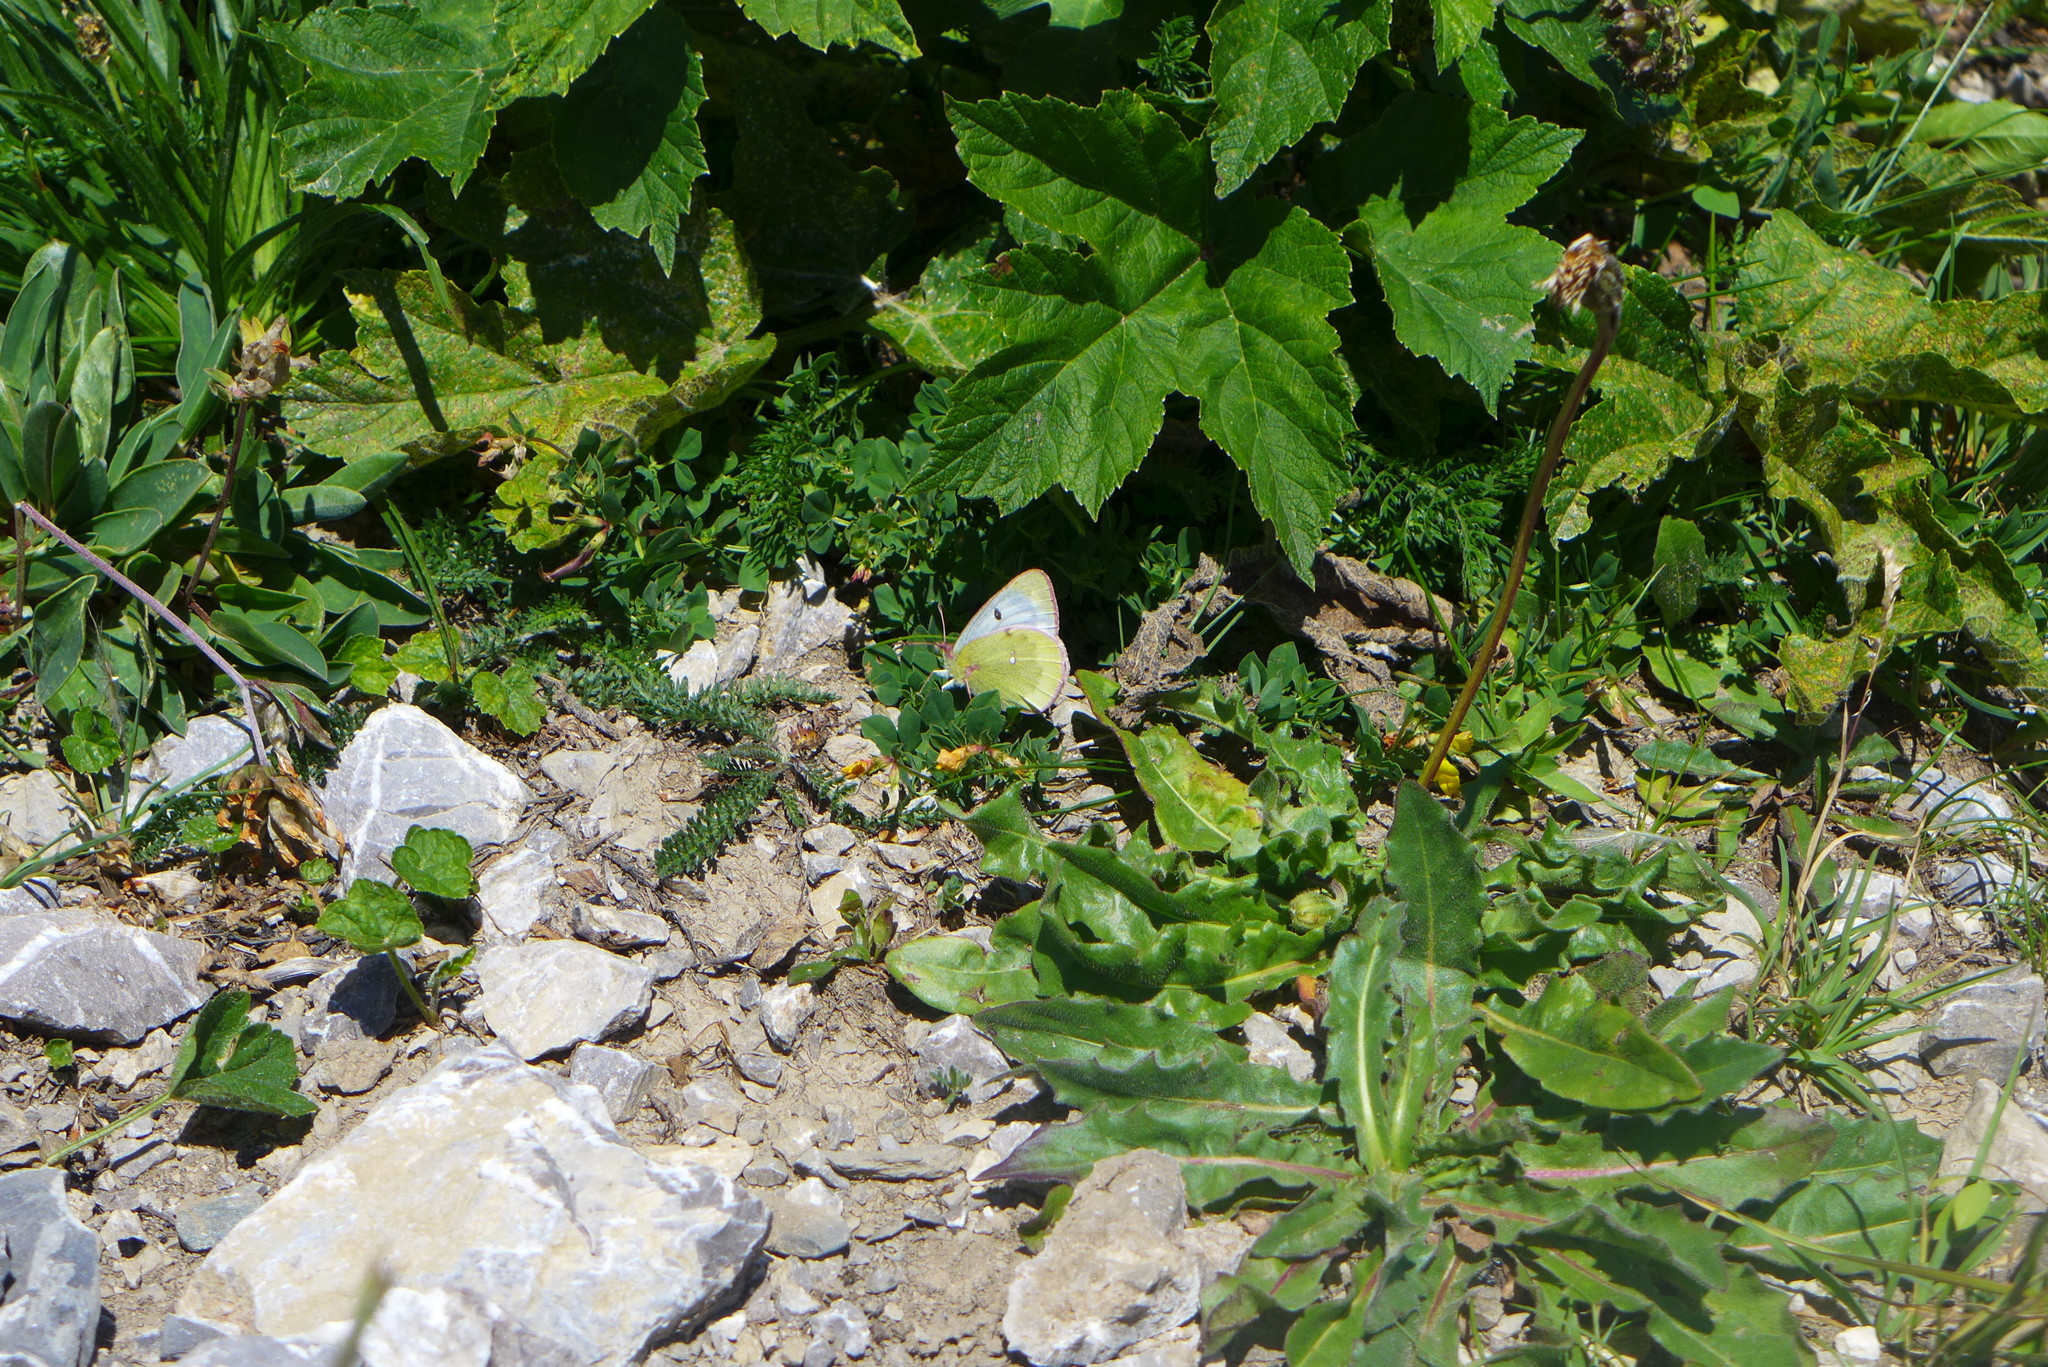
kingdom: Animalia
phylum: Arthropoda
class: Insecta
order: Lepidoptera
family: Pieridae
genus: Colias
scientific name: Colias phicomone
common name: Mountain clouded yellow
